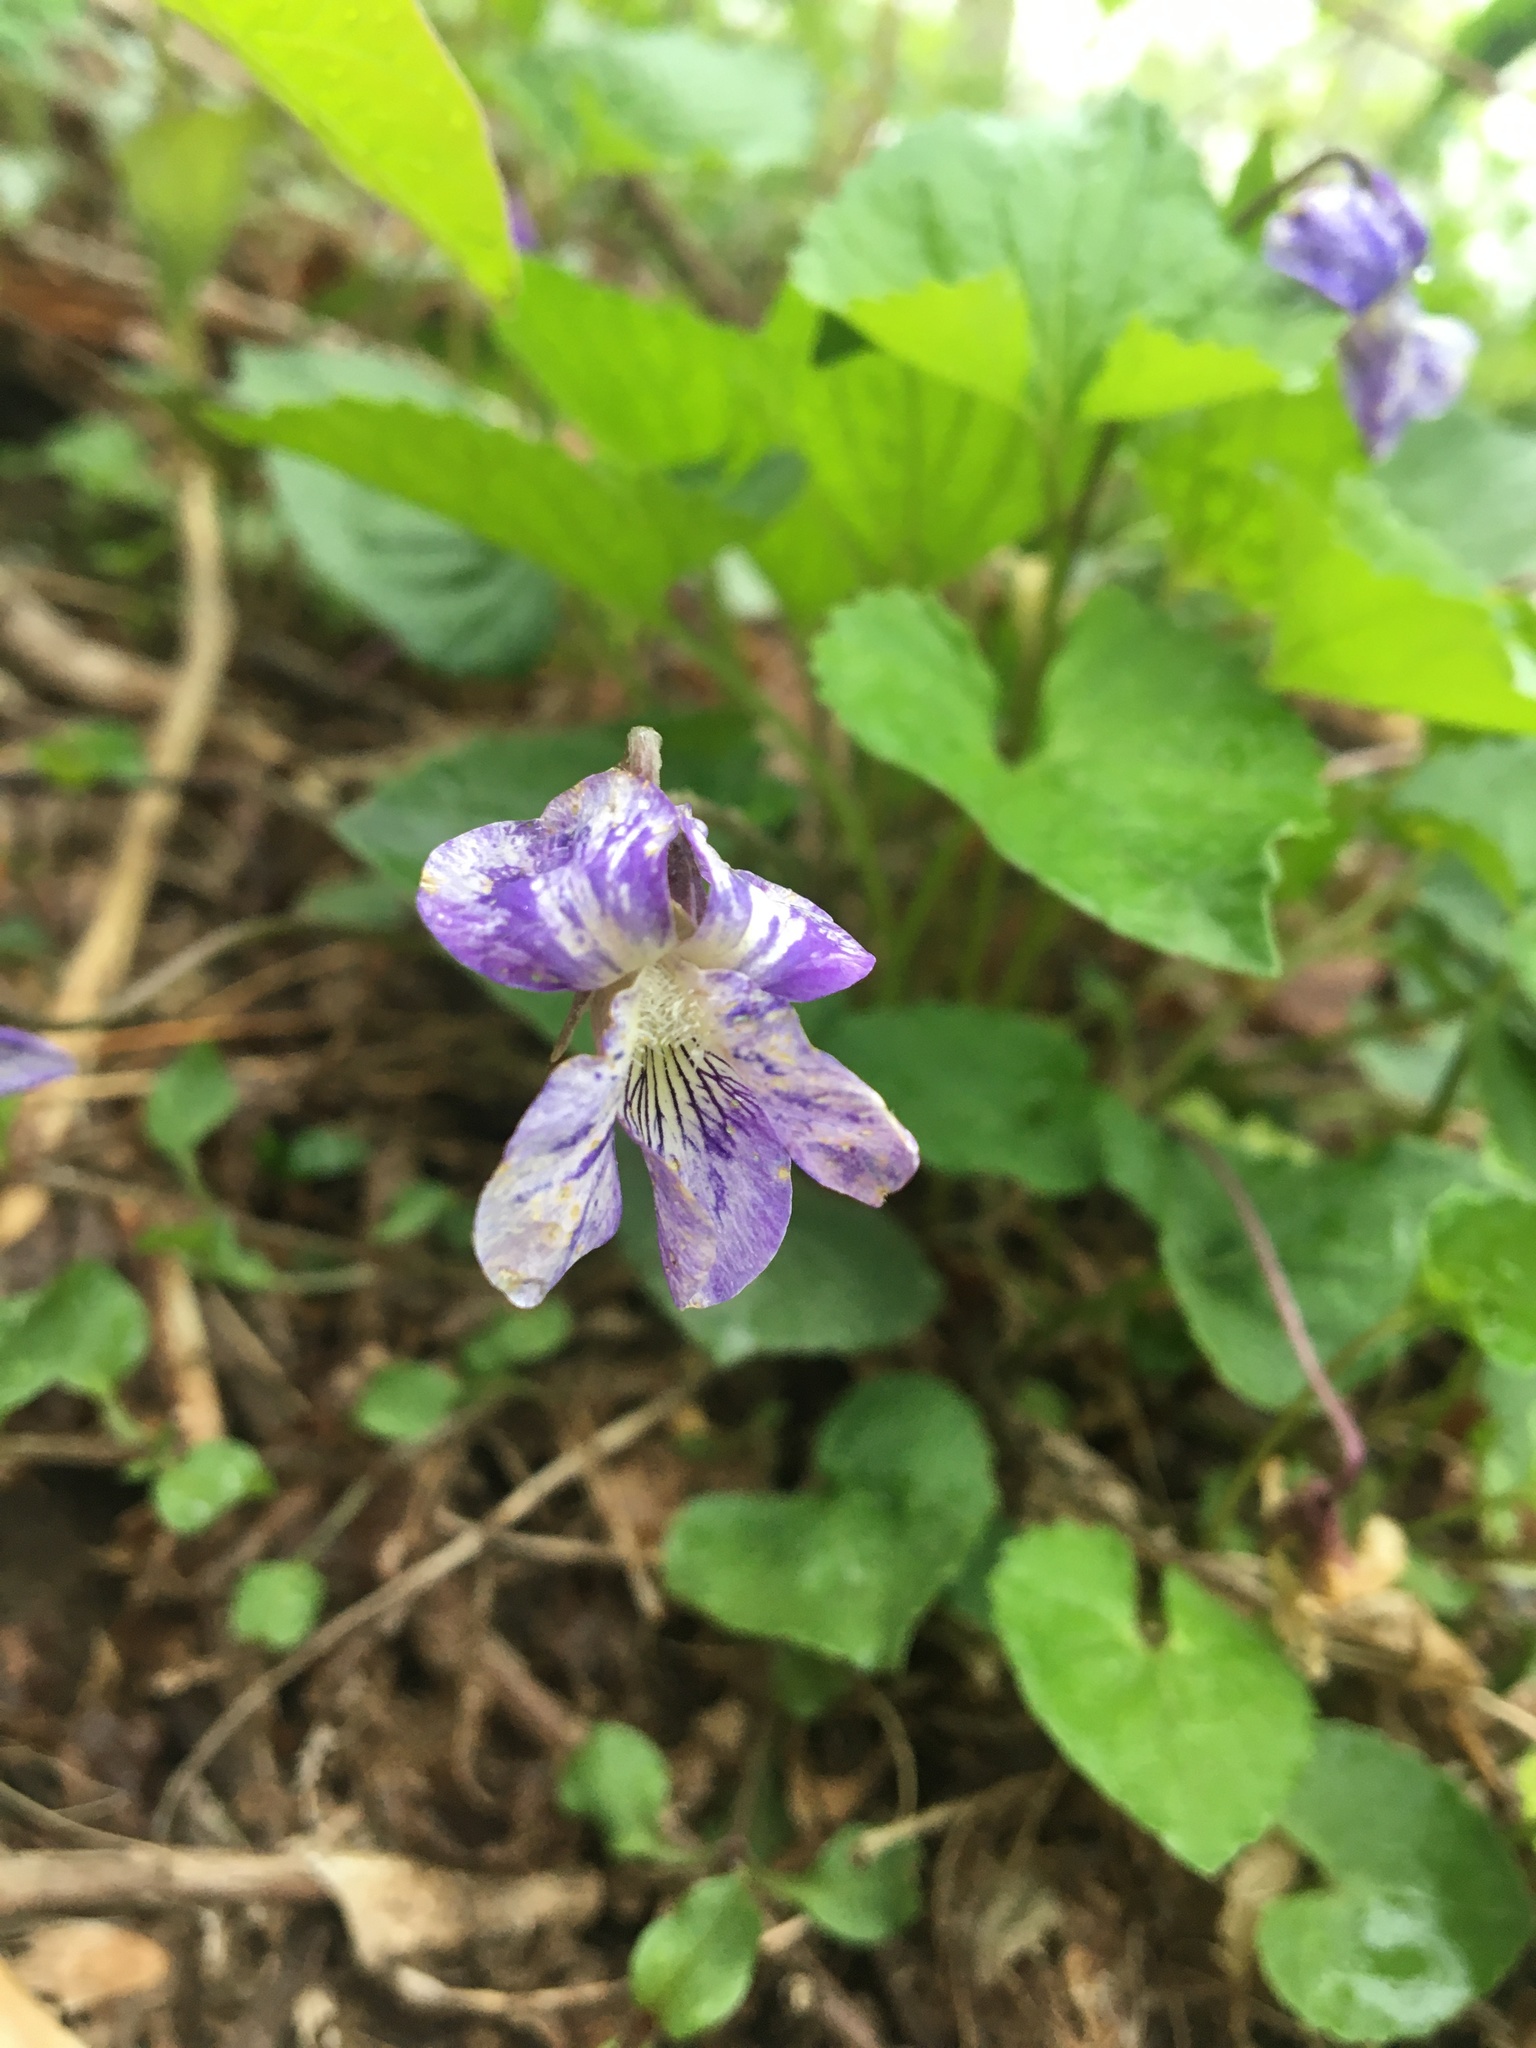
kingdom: Viruses
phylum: Kitrinoviricota
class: Alsuviricetes
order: Martellivirales
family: Bromoviridae
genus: Cucumovirus
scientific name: Cucumovirus Cucumber mosaic virus
